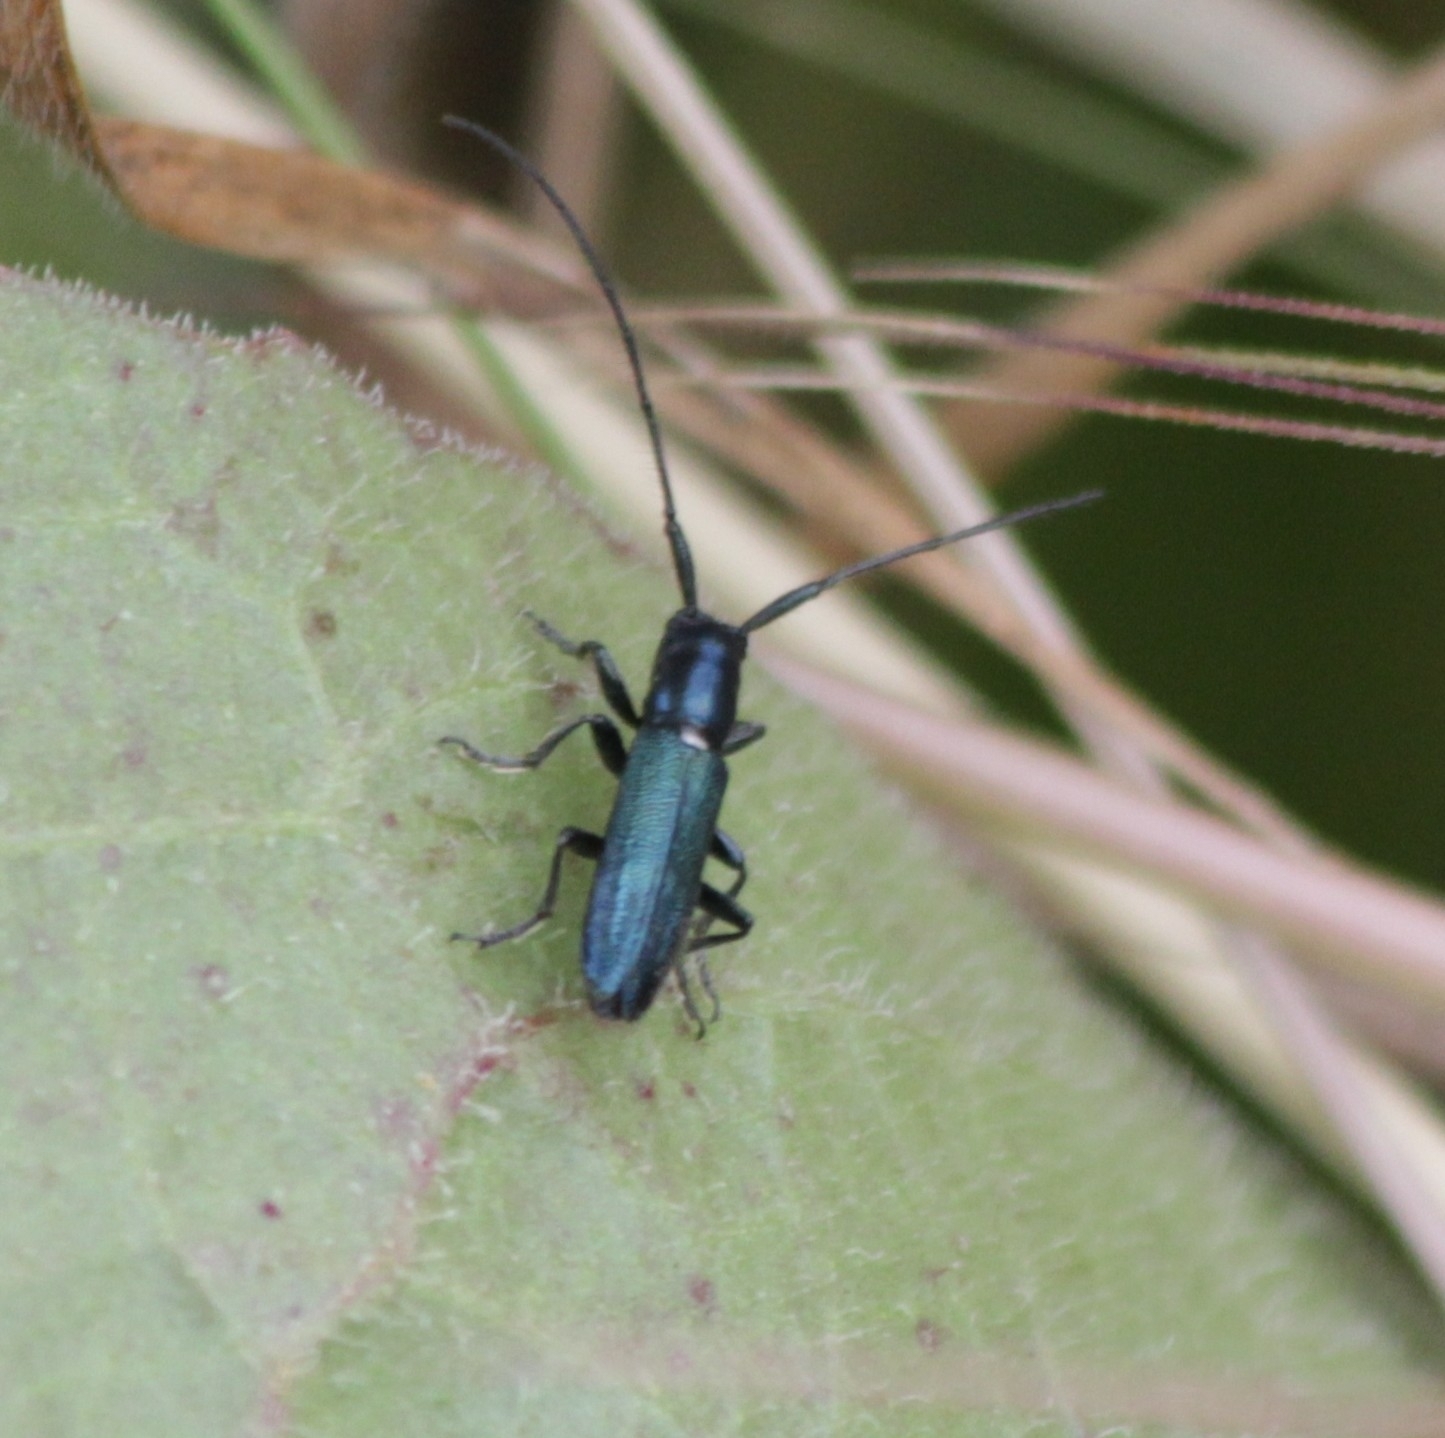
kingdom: Animalia
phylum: Arthropoda
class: Insecta
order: Coleoptera
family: Cerambycidae
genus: Agapanthiola
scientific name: Agapanthiola leucaspis
